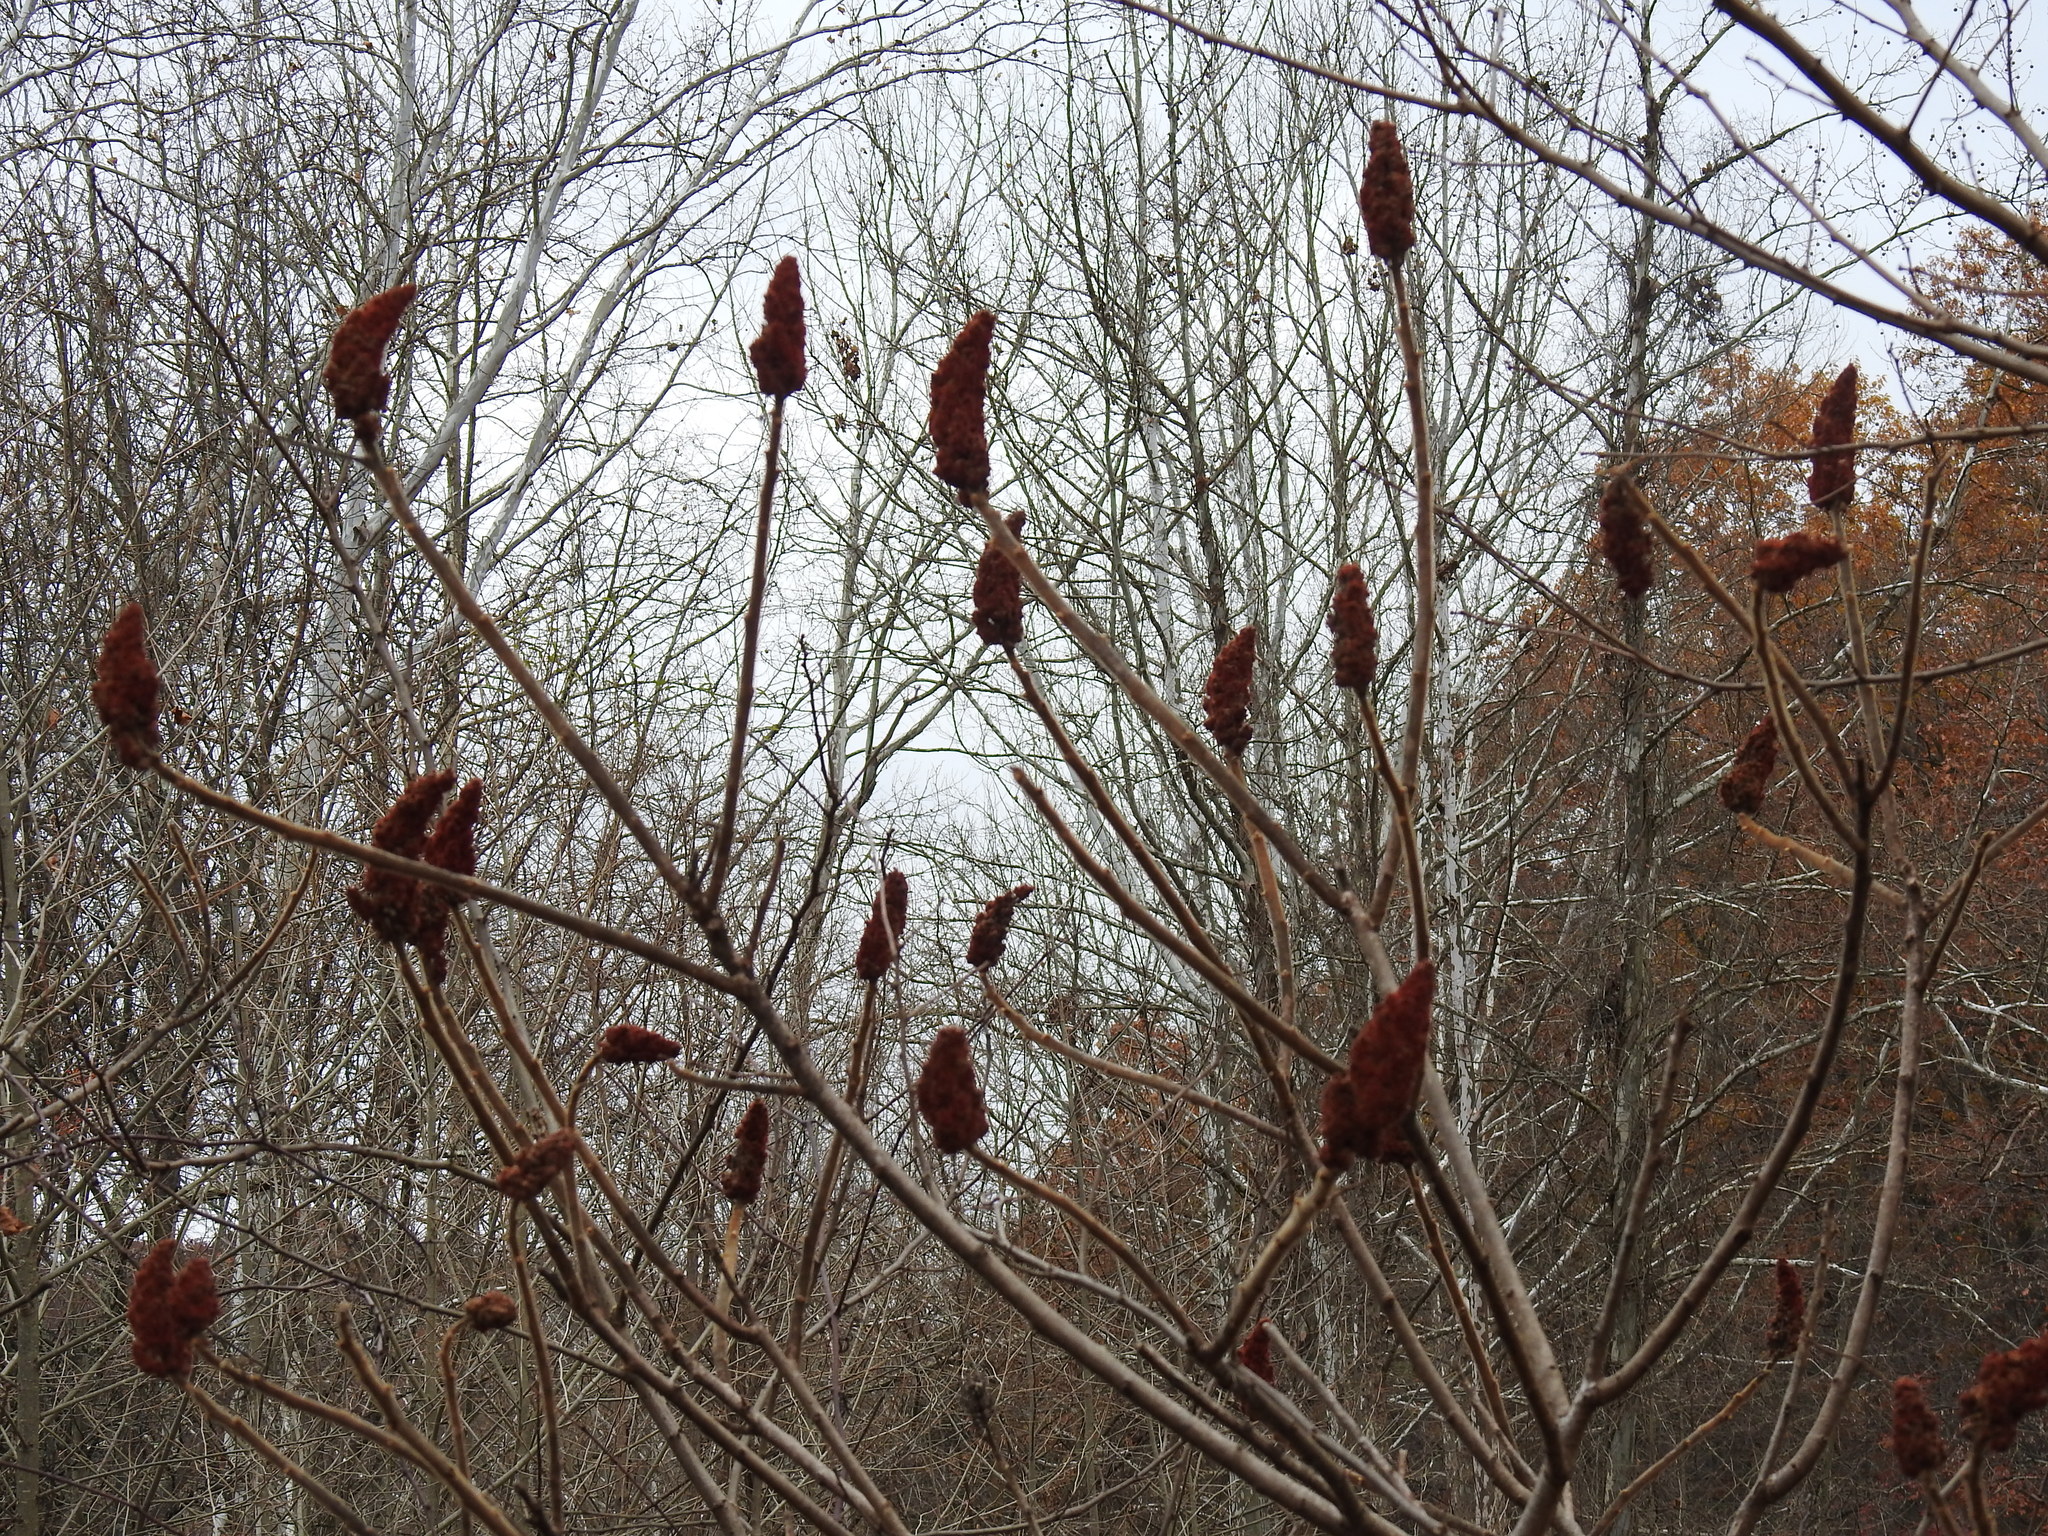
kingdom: Plantae
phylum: Tracheophyta
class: Magnoliopsida
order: Sapindales
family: Anacardiaceae
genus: Rhus
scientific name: Rhus typhina
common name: Staghorn sumac
